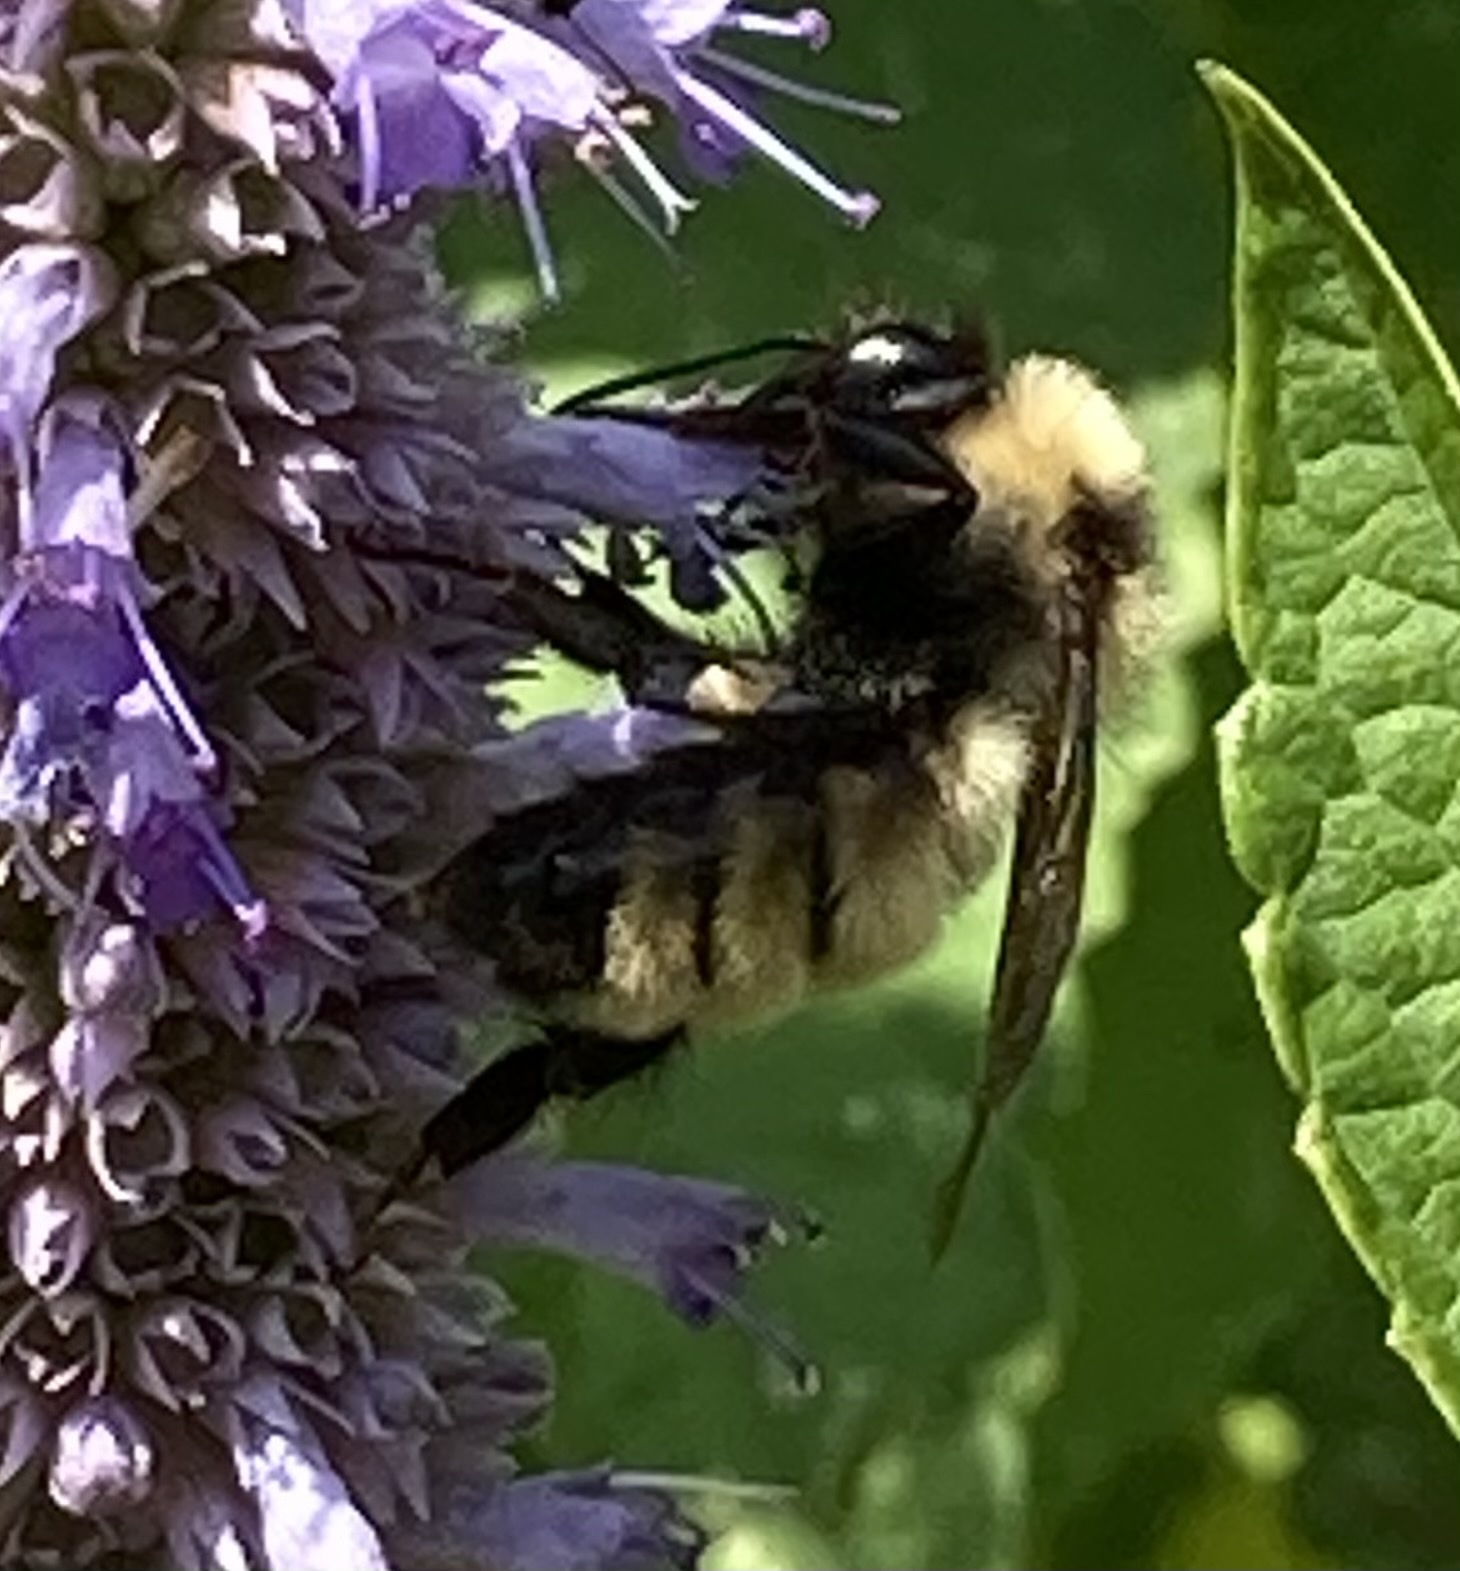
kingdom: Animalia
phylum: Arthropoda
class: Insecta
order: Hymenoptera
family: Apidae
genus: Bombus
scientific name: Bombus fervidus
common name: Yellow bumble bee
